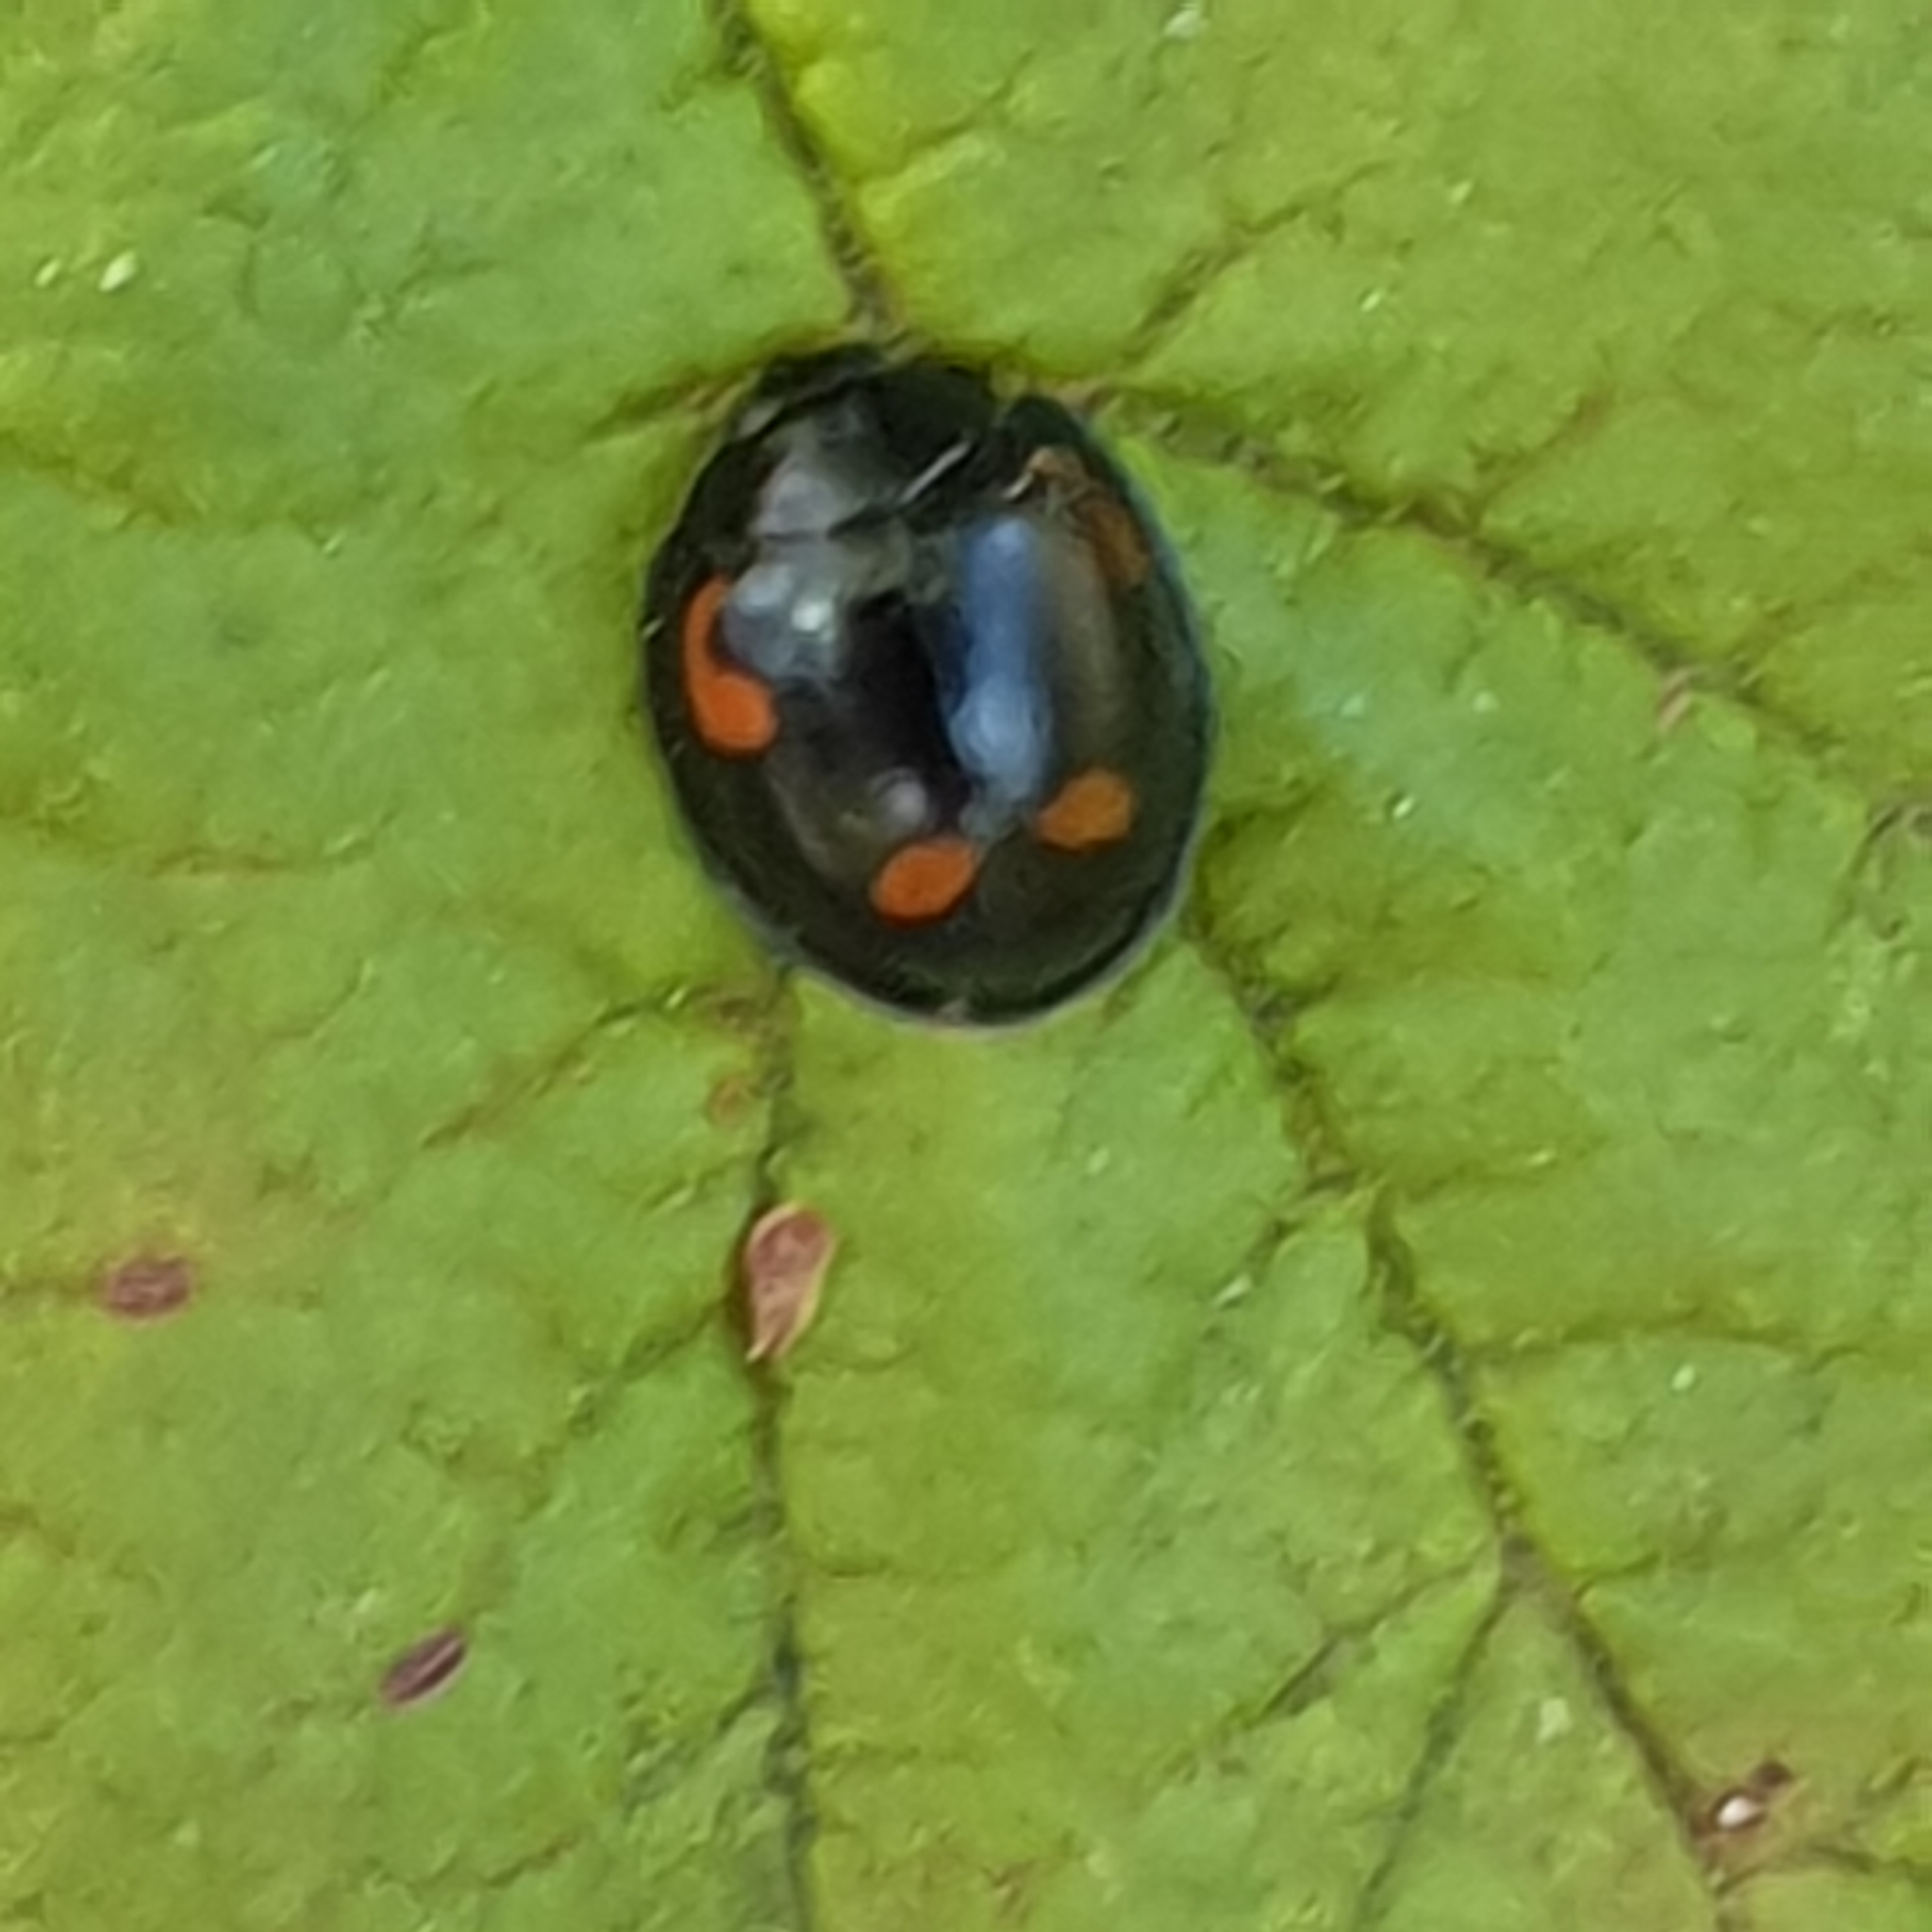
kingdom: Animalia
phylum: Arthropoda
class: Insecta
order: Coleoptera
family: Coccinellidae
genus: Brumus
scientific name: Brumus quadripustulatus
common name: Ladybird beetle
